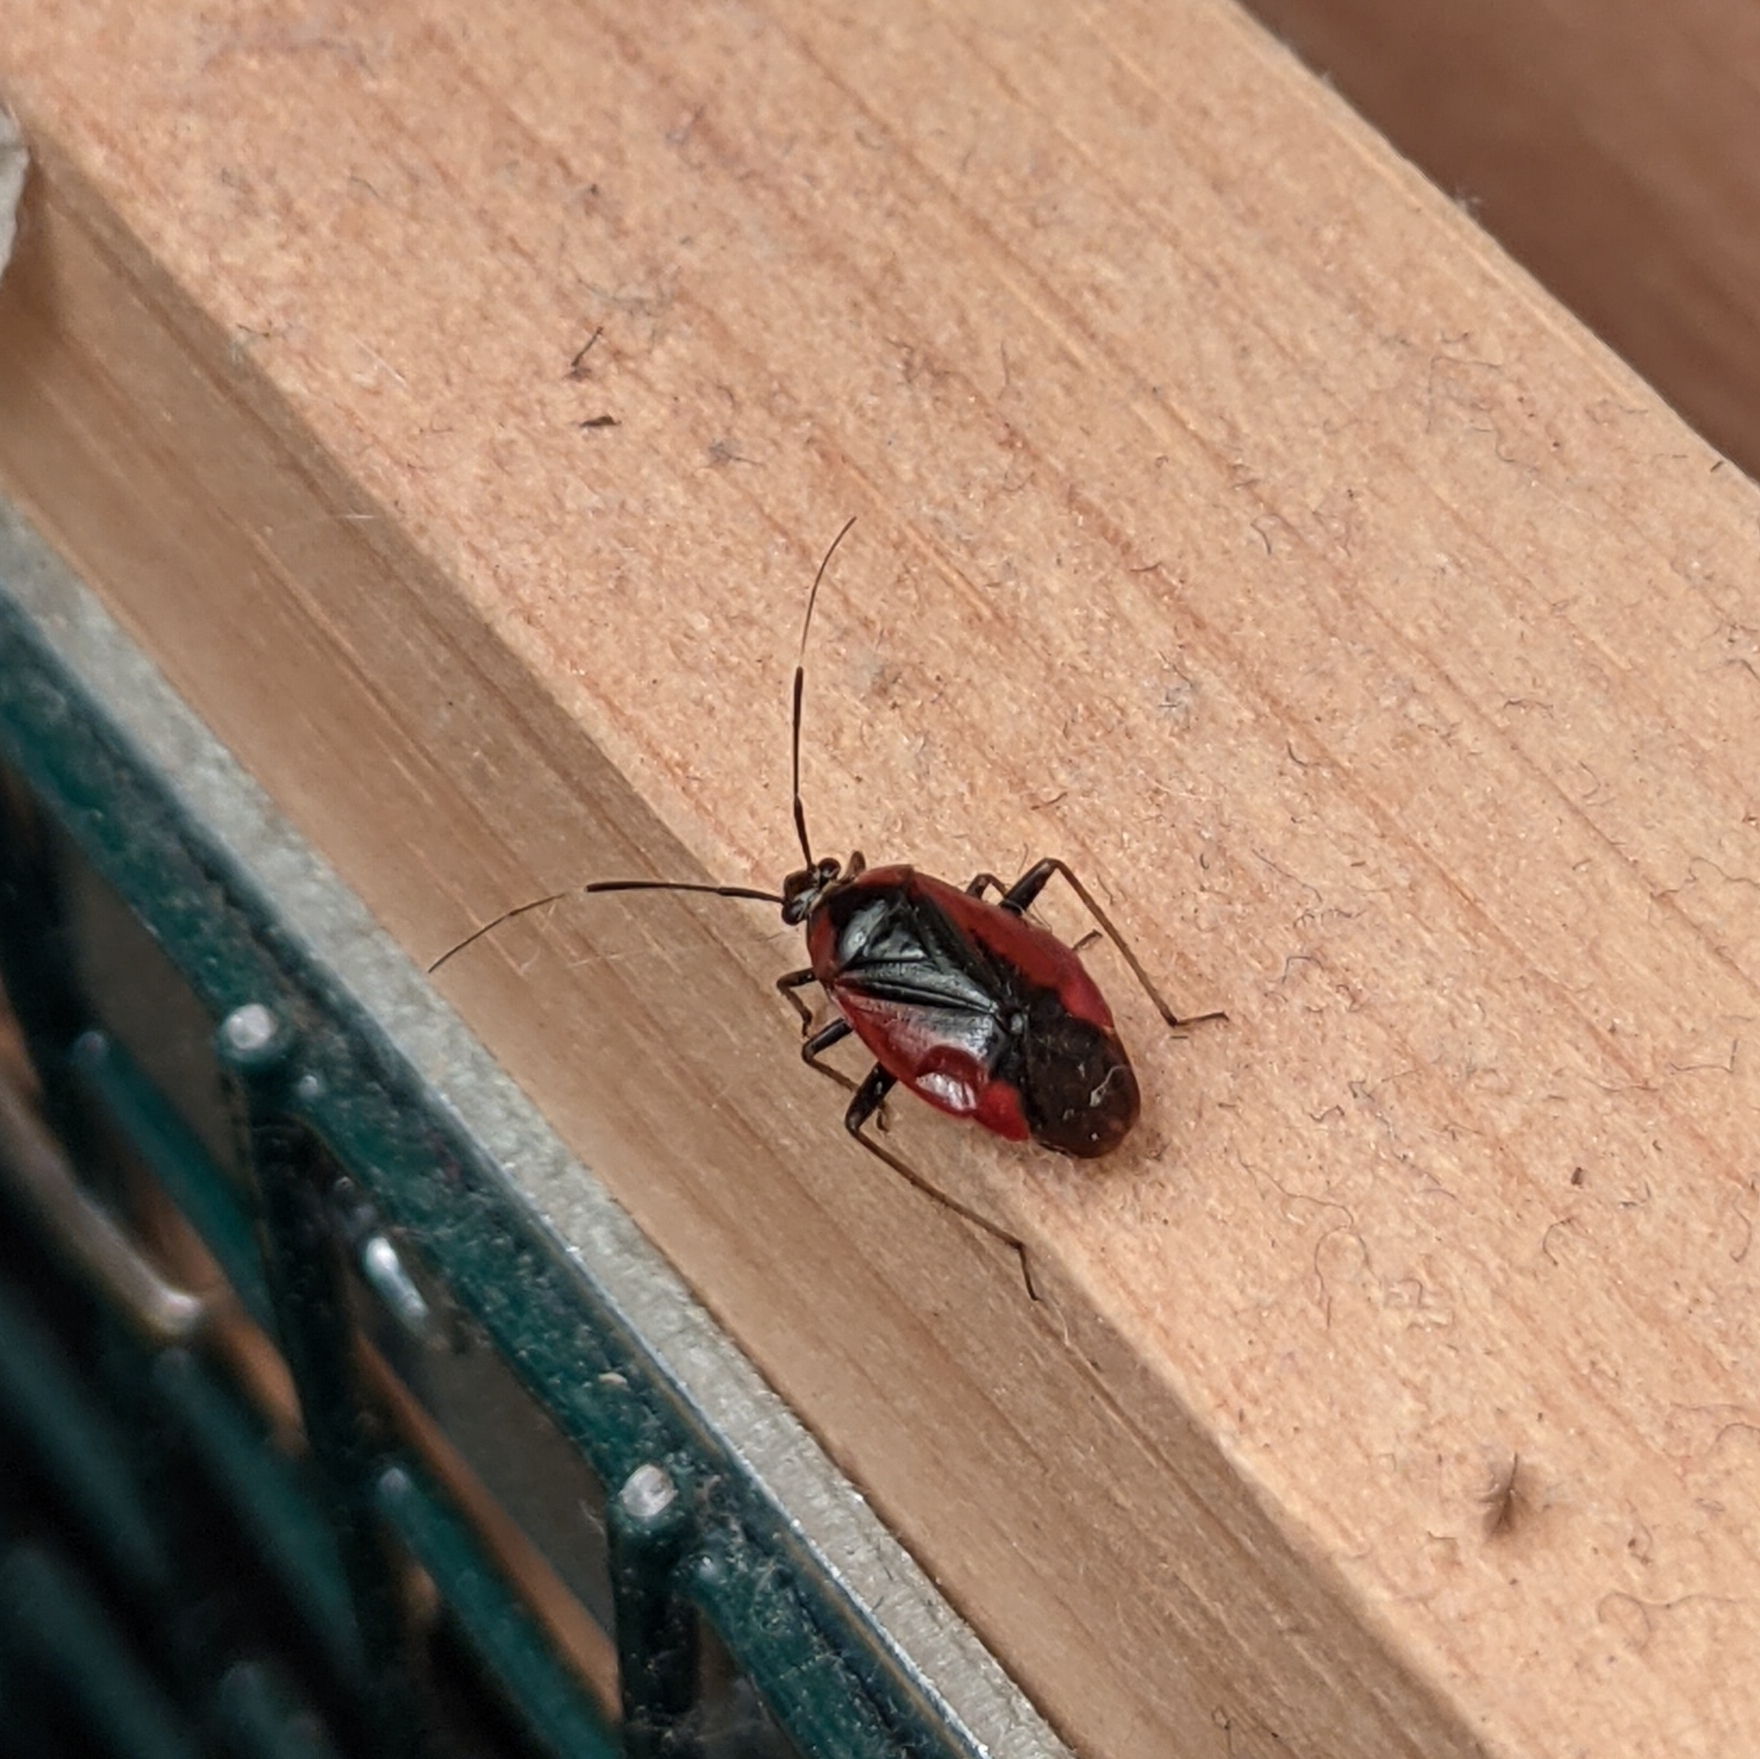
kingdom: Animalia
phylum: Arthropoda
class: Insecta
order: Hemiptera
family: Miridae
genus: Metriorrhynchomiris
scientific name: Metriorrhynchomiris dislocatus
